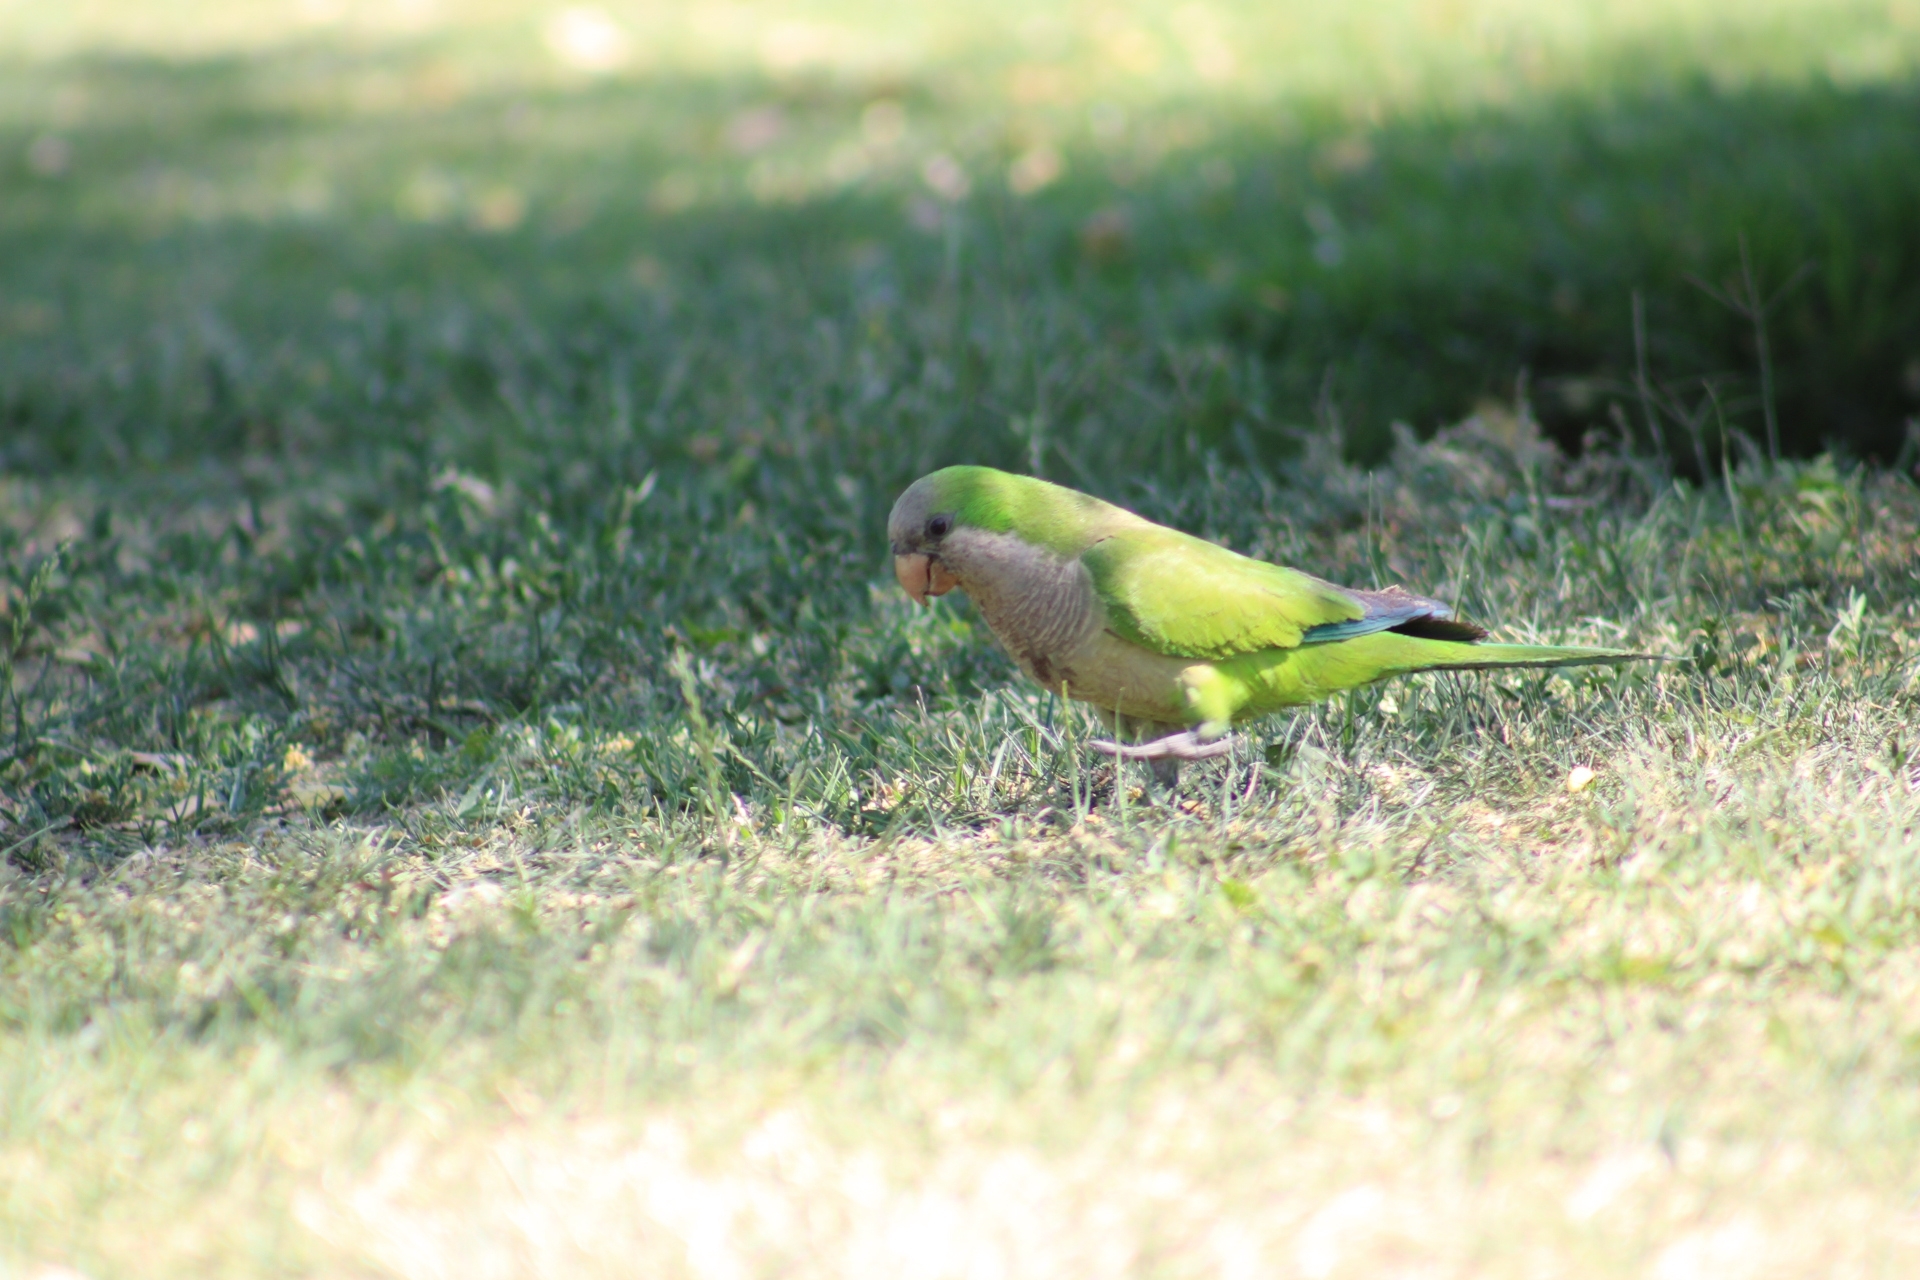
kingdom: Animalia
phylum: Chordata
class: Aves
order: Psittaciformes
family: Psittacidae
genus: Myiopsitta
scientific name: Myiopsitta monachus
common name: Monk parakeet
